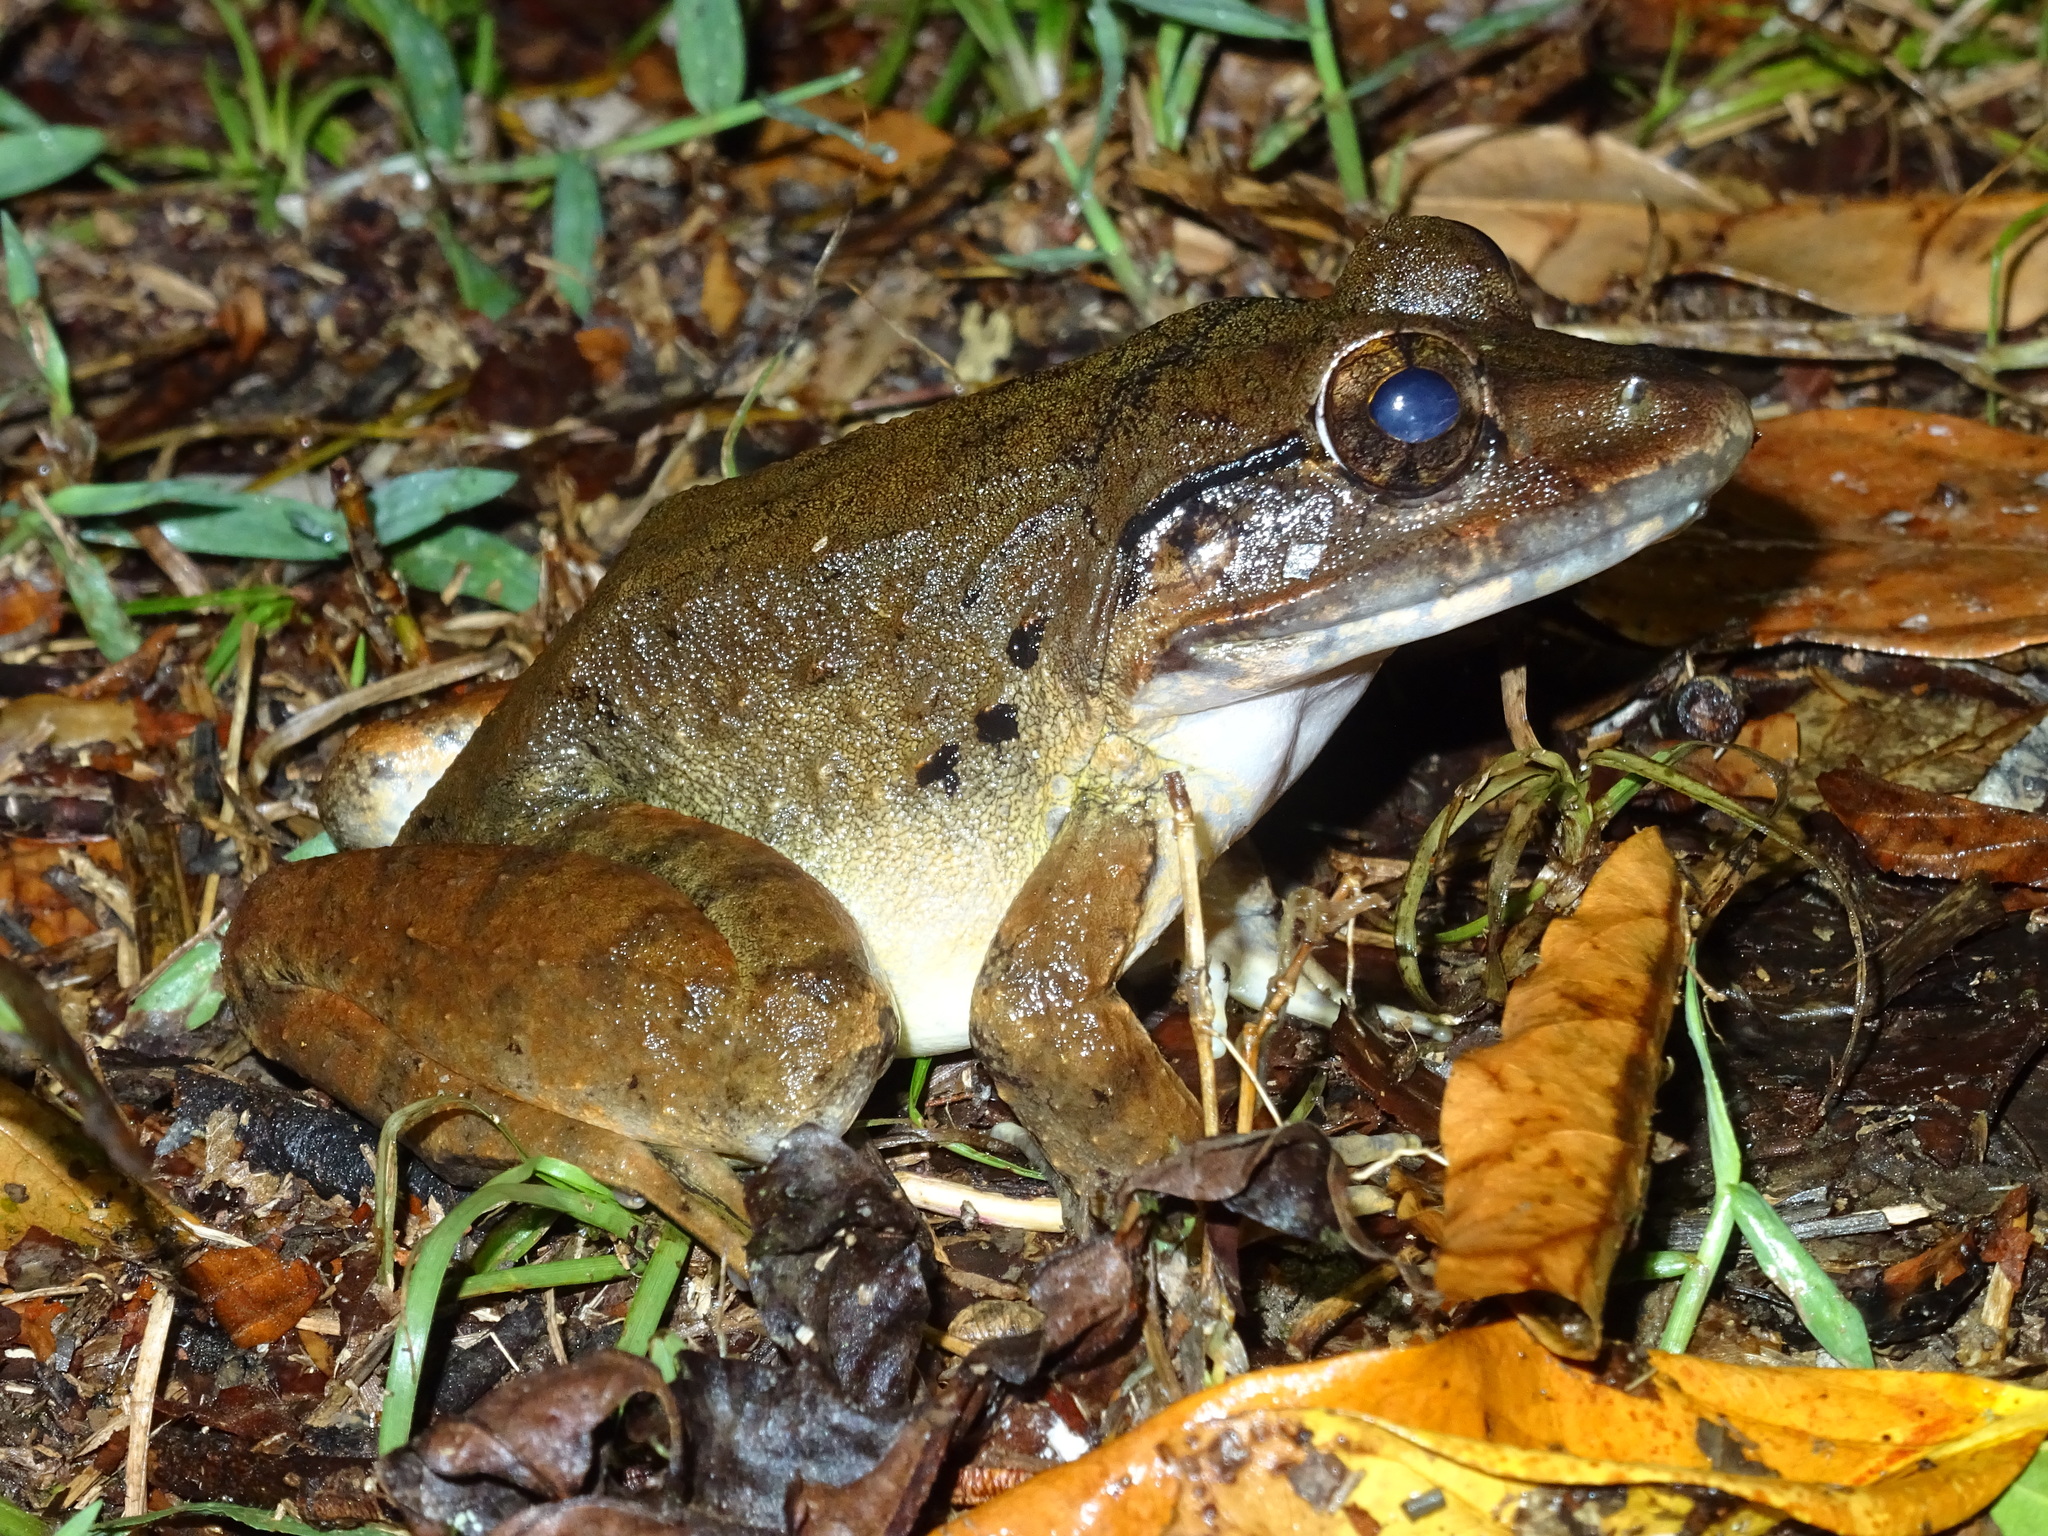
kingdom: Animalia
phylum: Chordata
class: Amphibia
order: Anura
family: Dicroglossidae
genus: Limnonectes
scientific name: Limnonectes blythii
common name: Blyth’s river frog/giant asian river frog/giant frog
